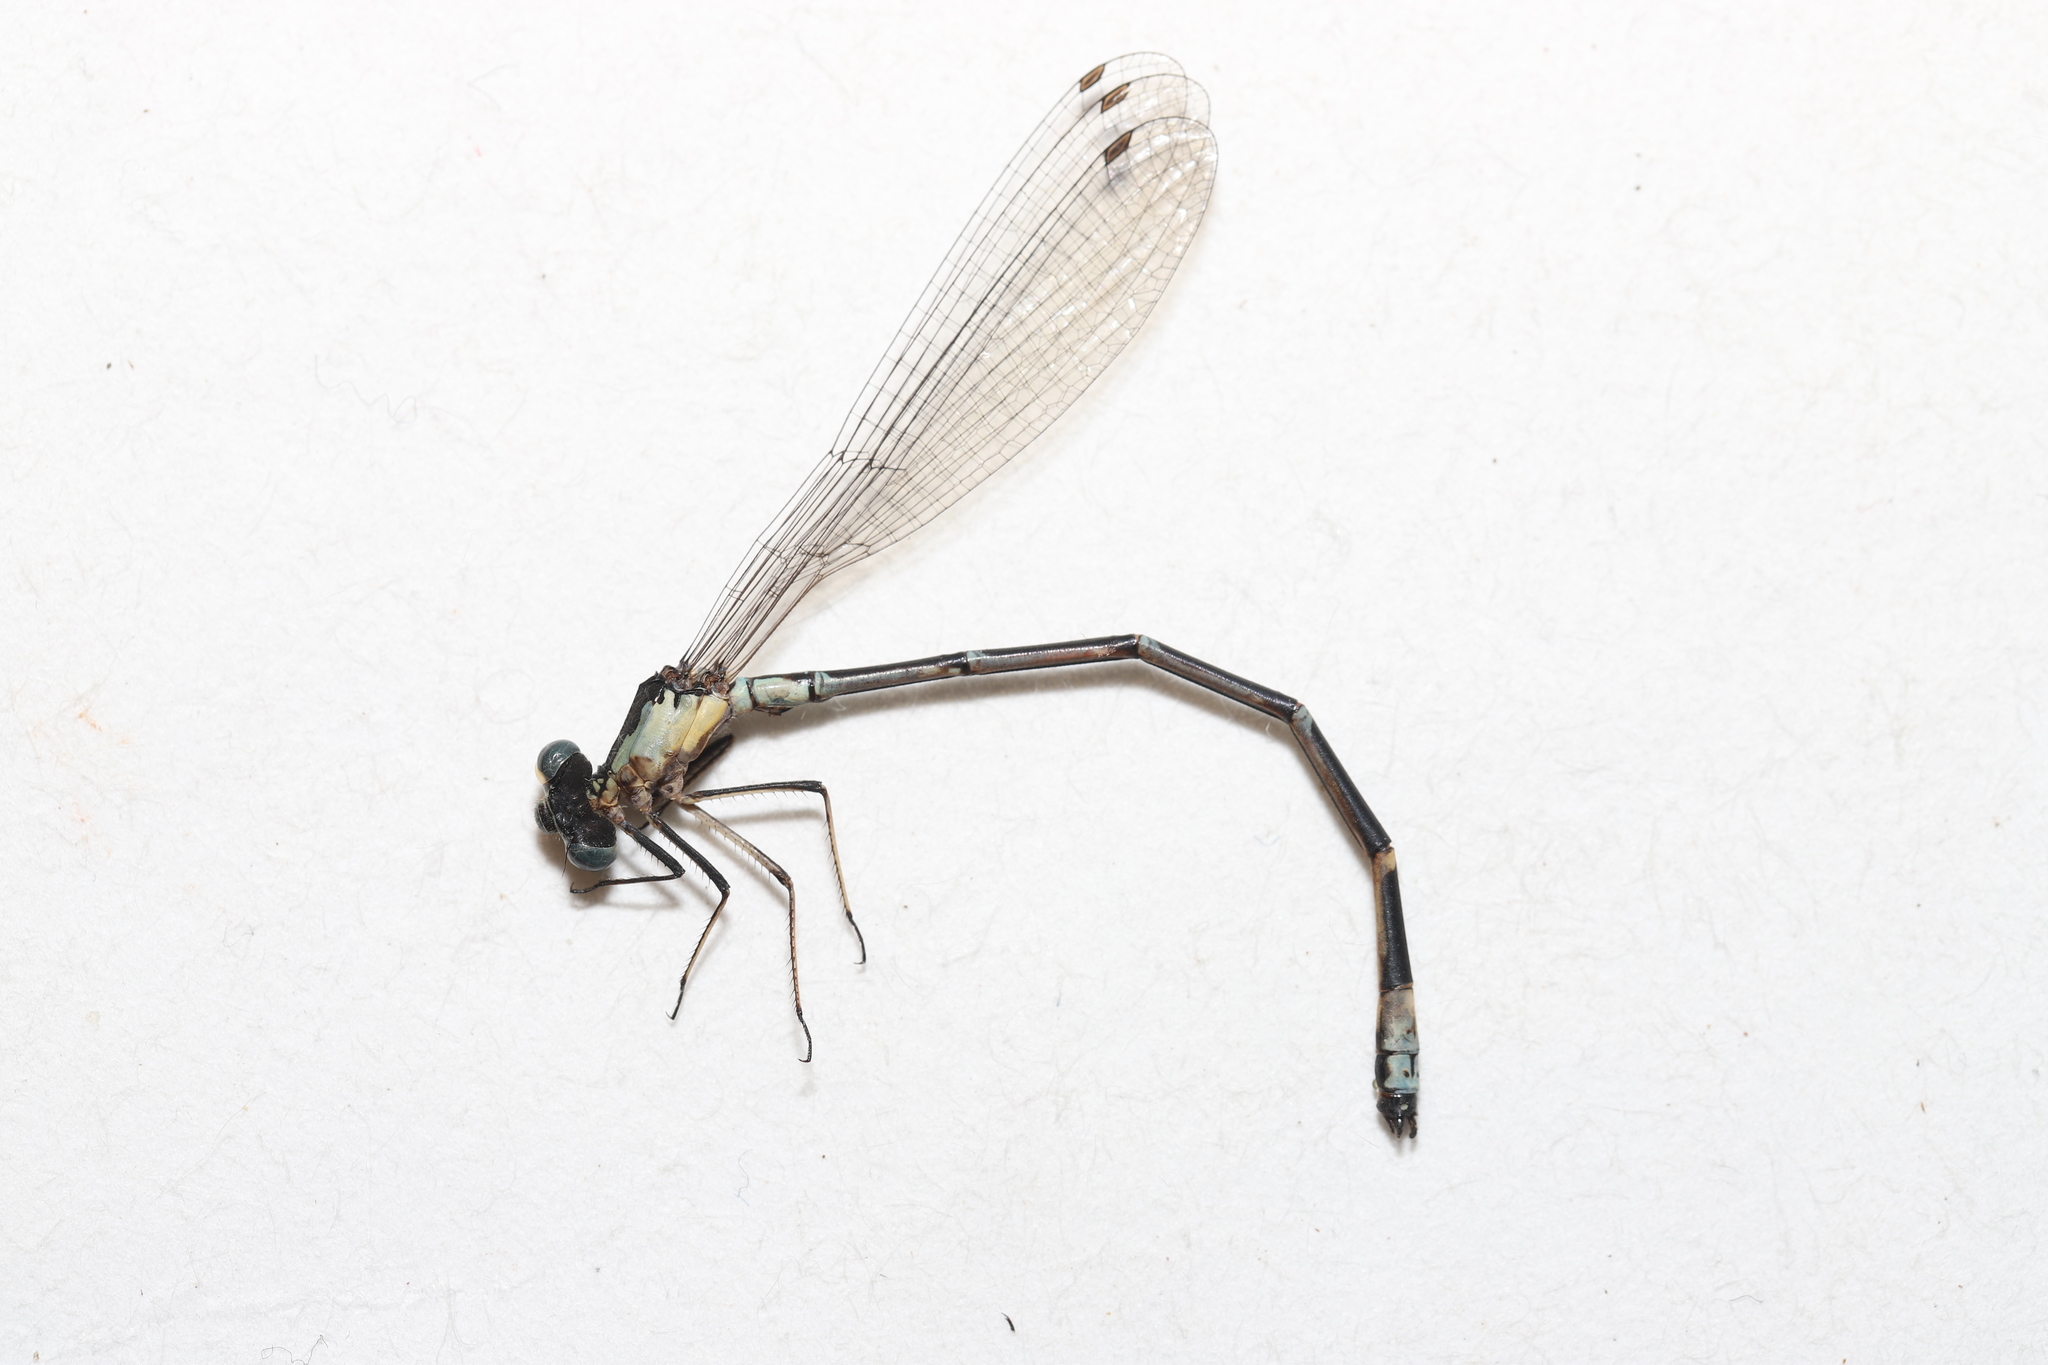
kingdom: Animalia
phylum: Arthropoda
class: Insecta
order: Odonata
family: Coenagrionidae
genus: Chromagrion
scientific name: Chromagrion conditum
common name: Aurora damsel
